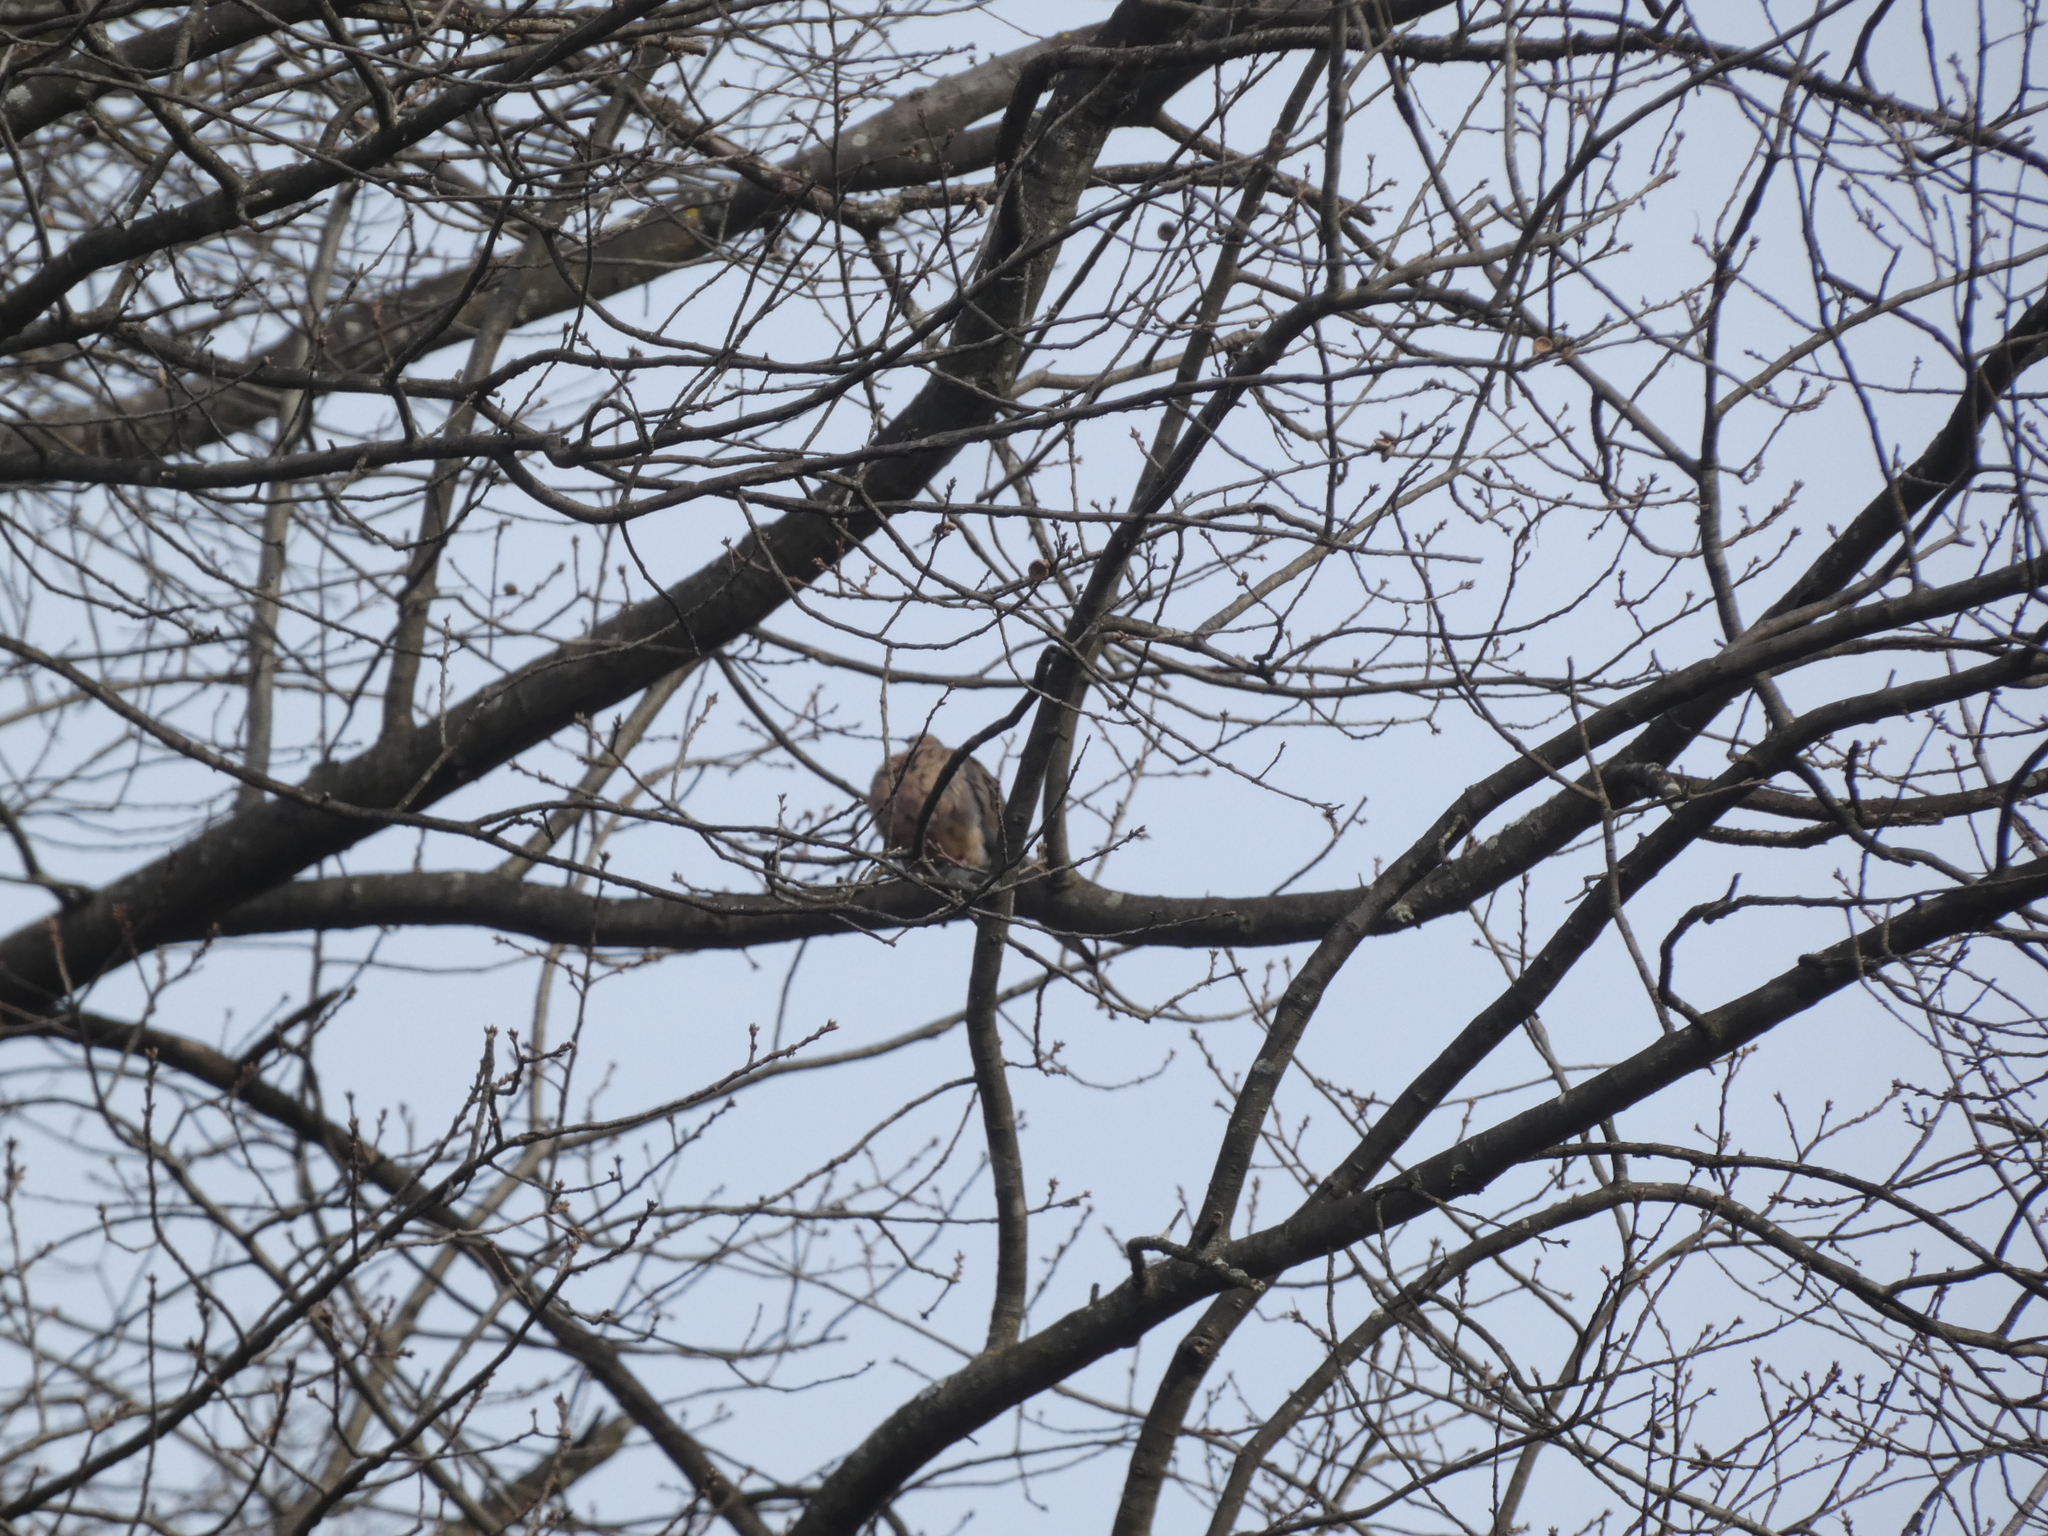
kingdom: Animalia
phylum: Chordata
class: Aves
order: Columbiformes
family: Columbidae
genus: Zenaida
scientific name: Zenaida macroura
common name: Mourning dove
